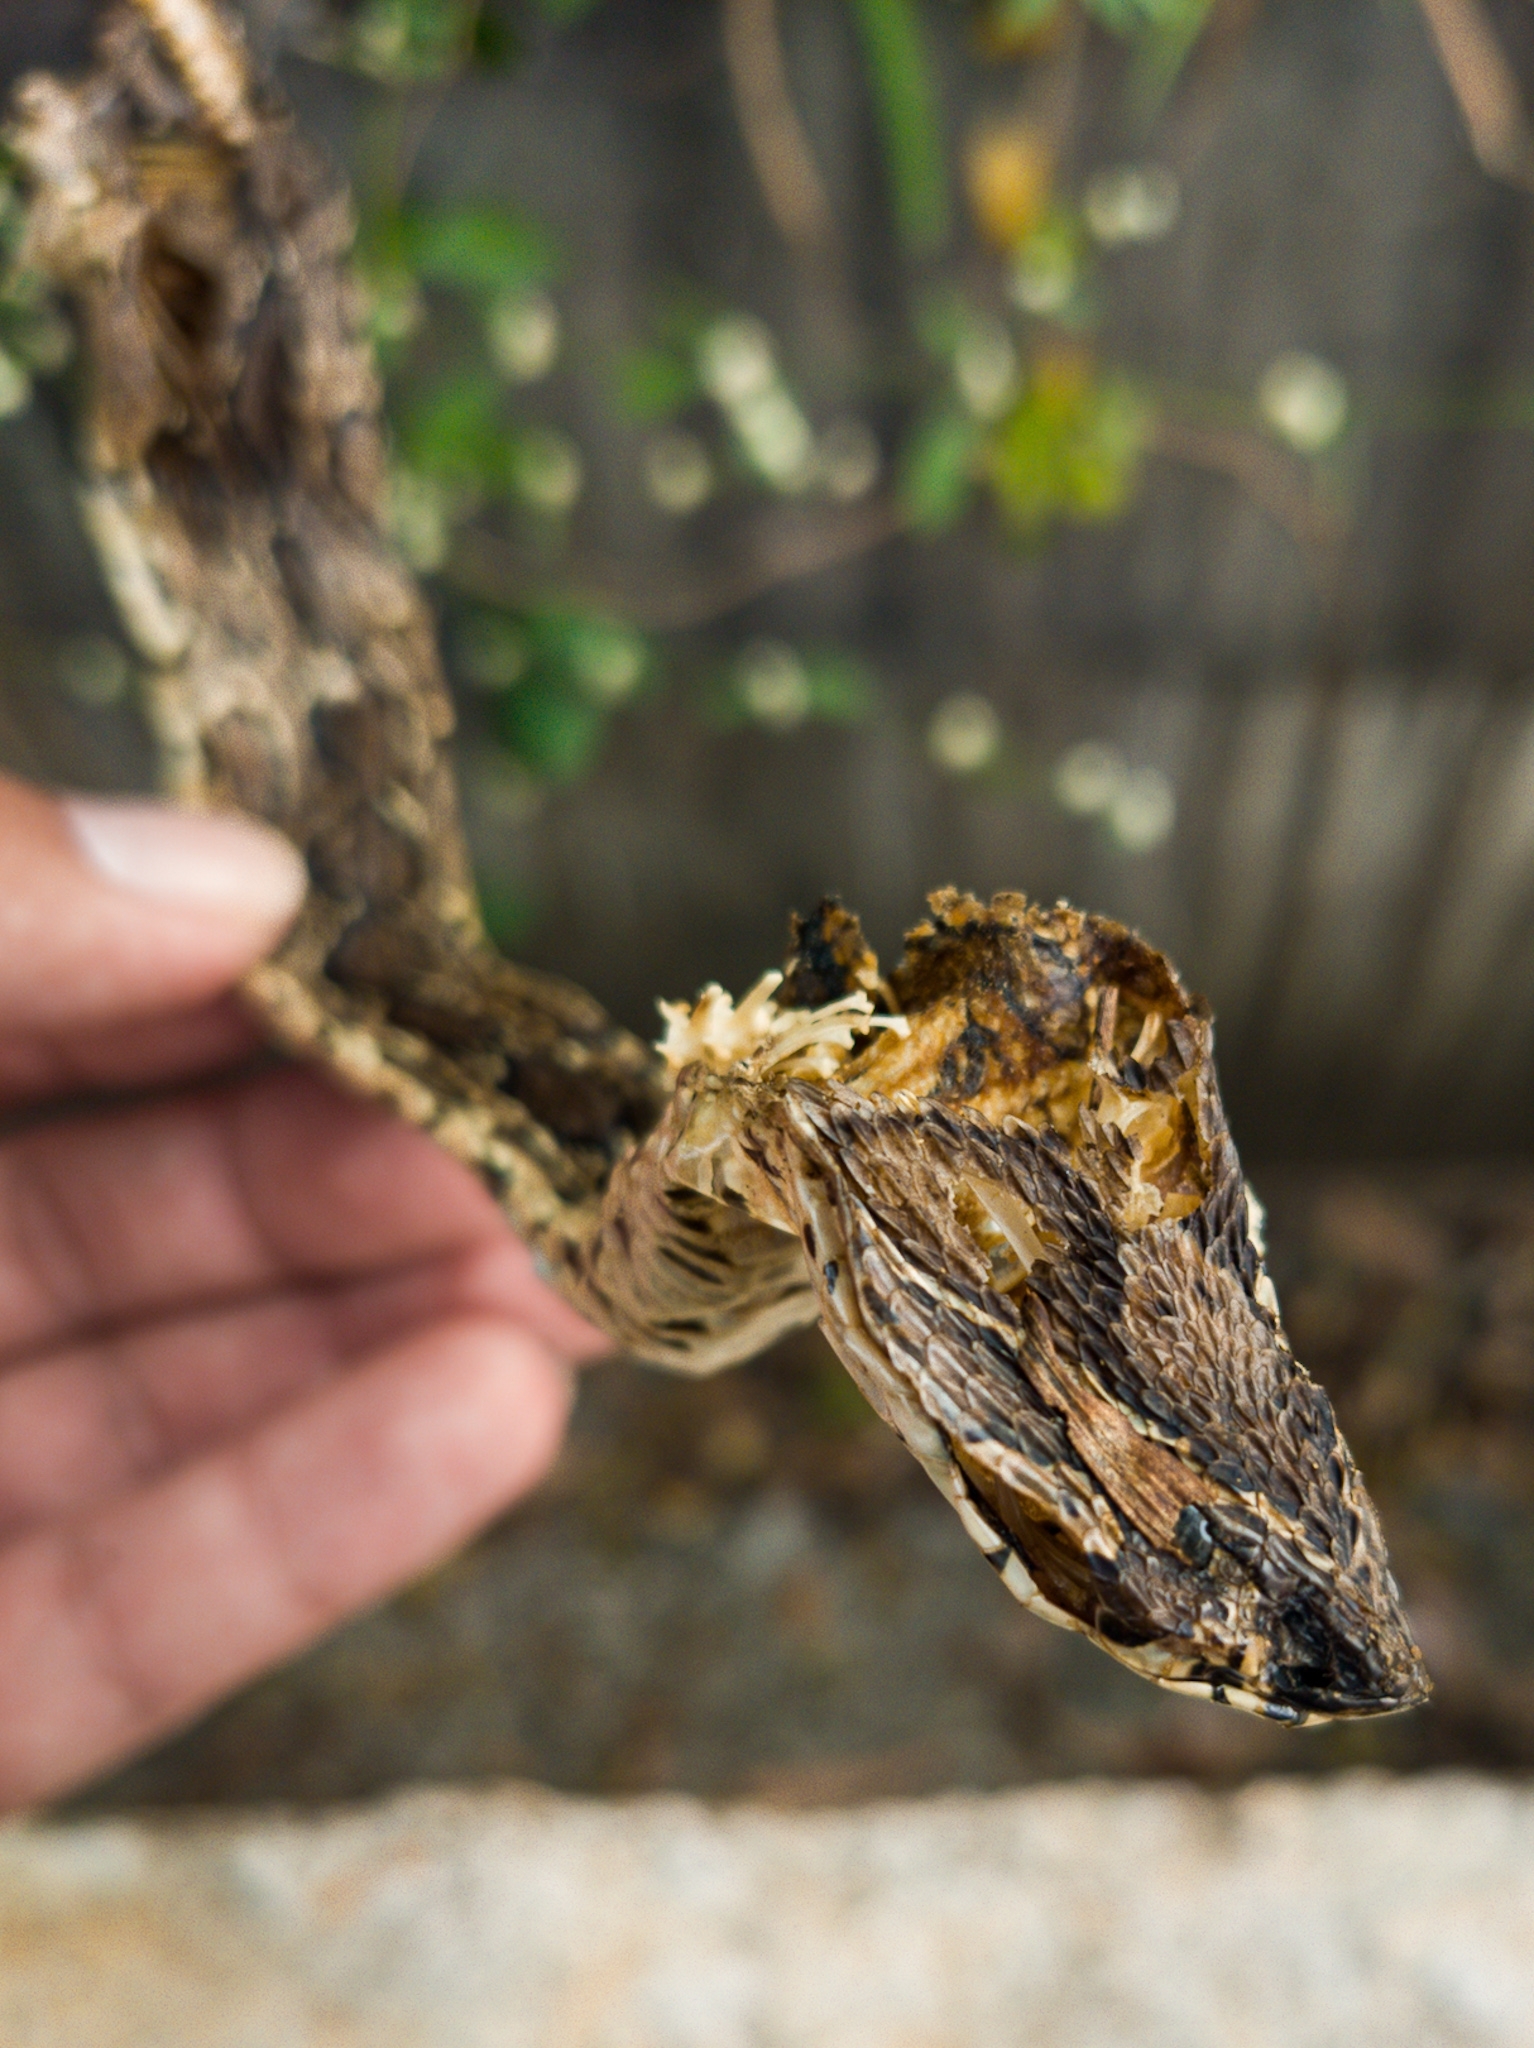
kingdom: Animalia
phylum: Chordata
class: Squamata
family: Viperidae
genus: Daboia
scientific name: Daboia russelii
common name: Western russel’s viper
